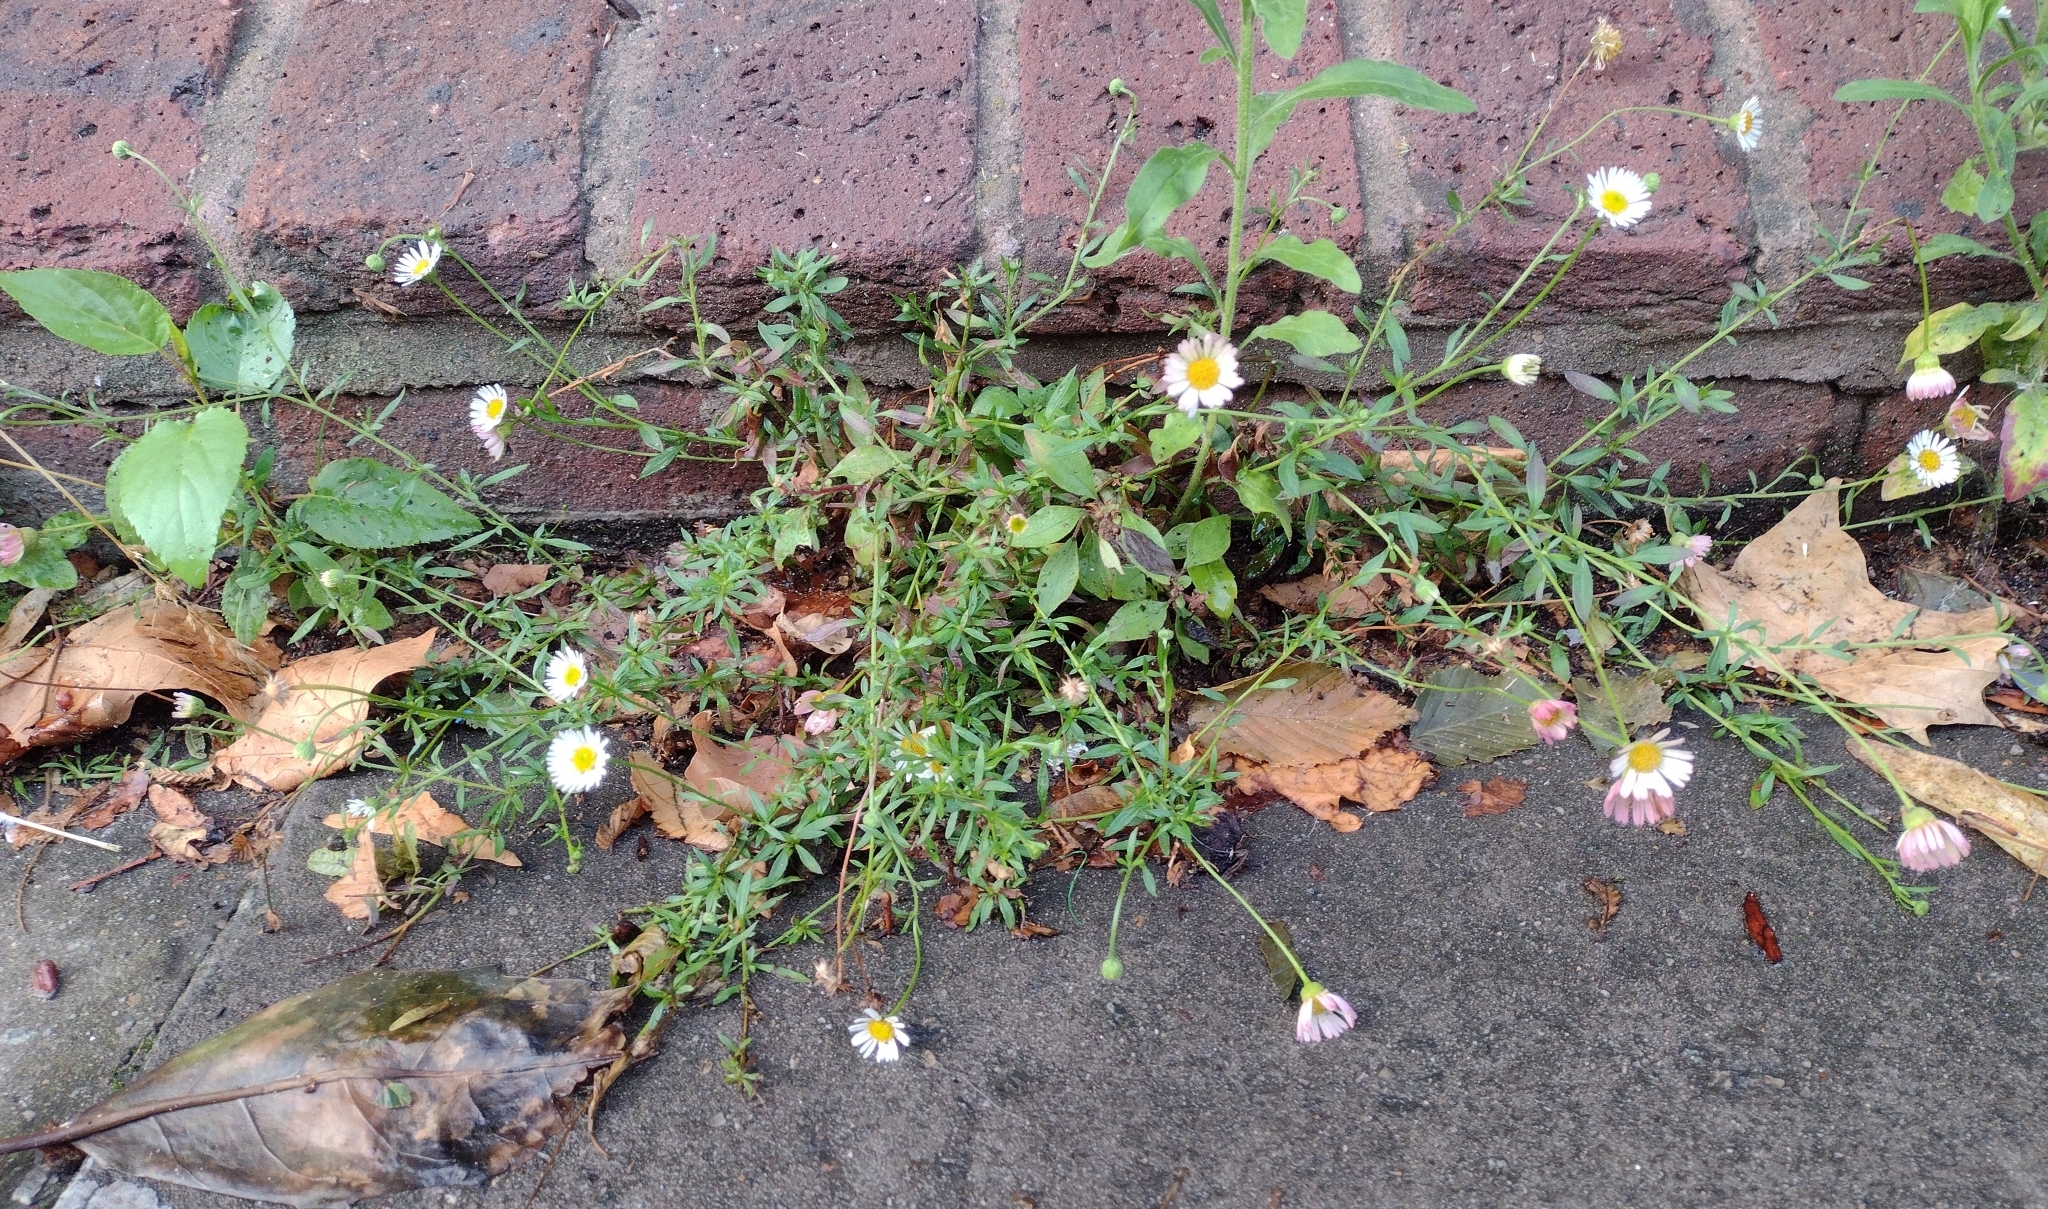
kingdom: Plantae
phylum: Tracheophyta
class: Magnoliopsida
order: Asterales
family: Asteraceae
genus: Erigeron
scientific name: Erigeron karvinskianus
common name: Mexican fleabane
